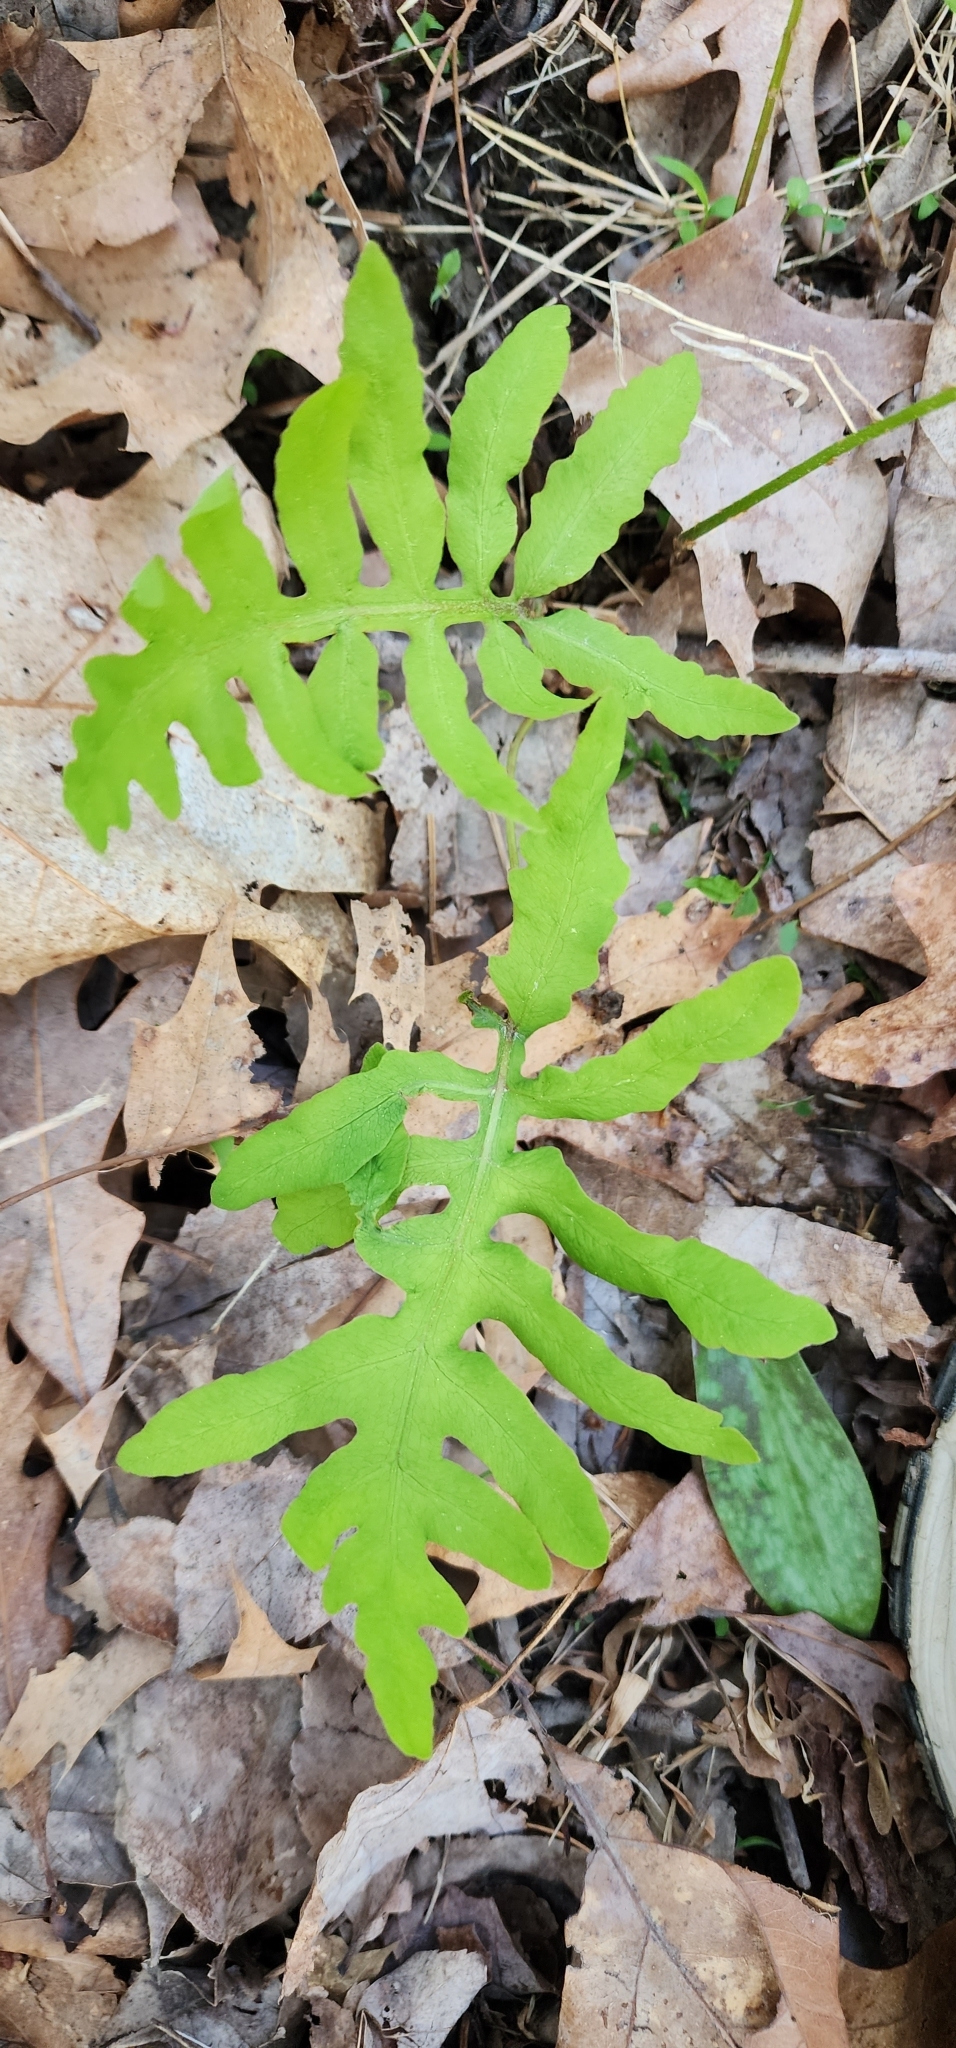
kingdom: Plantae
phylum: Tracheophyta
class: Polypodiopsida
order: Polypodiales
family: Onocleaceae
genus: Onoclea
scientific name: Onoclea sensibilis
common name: Sensitive fern
